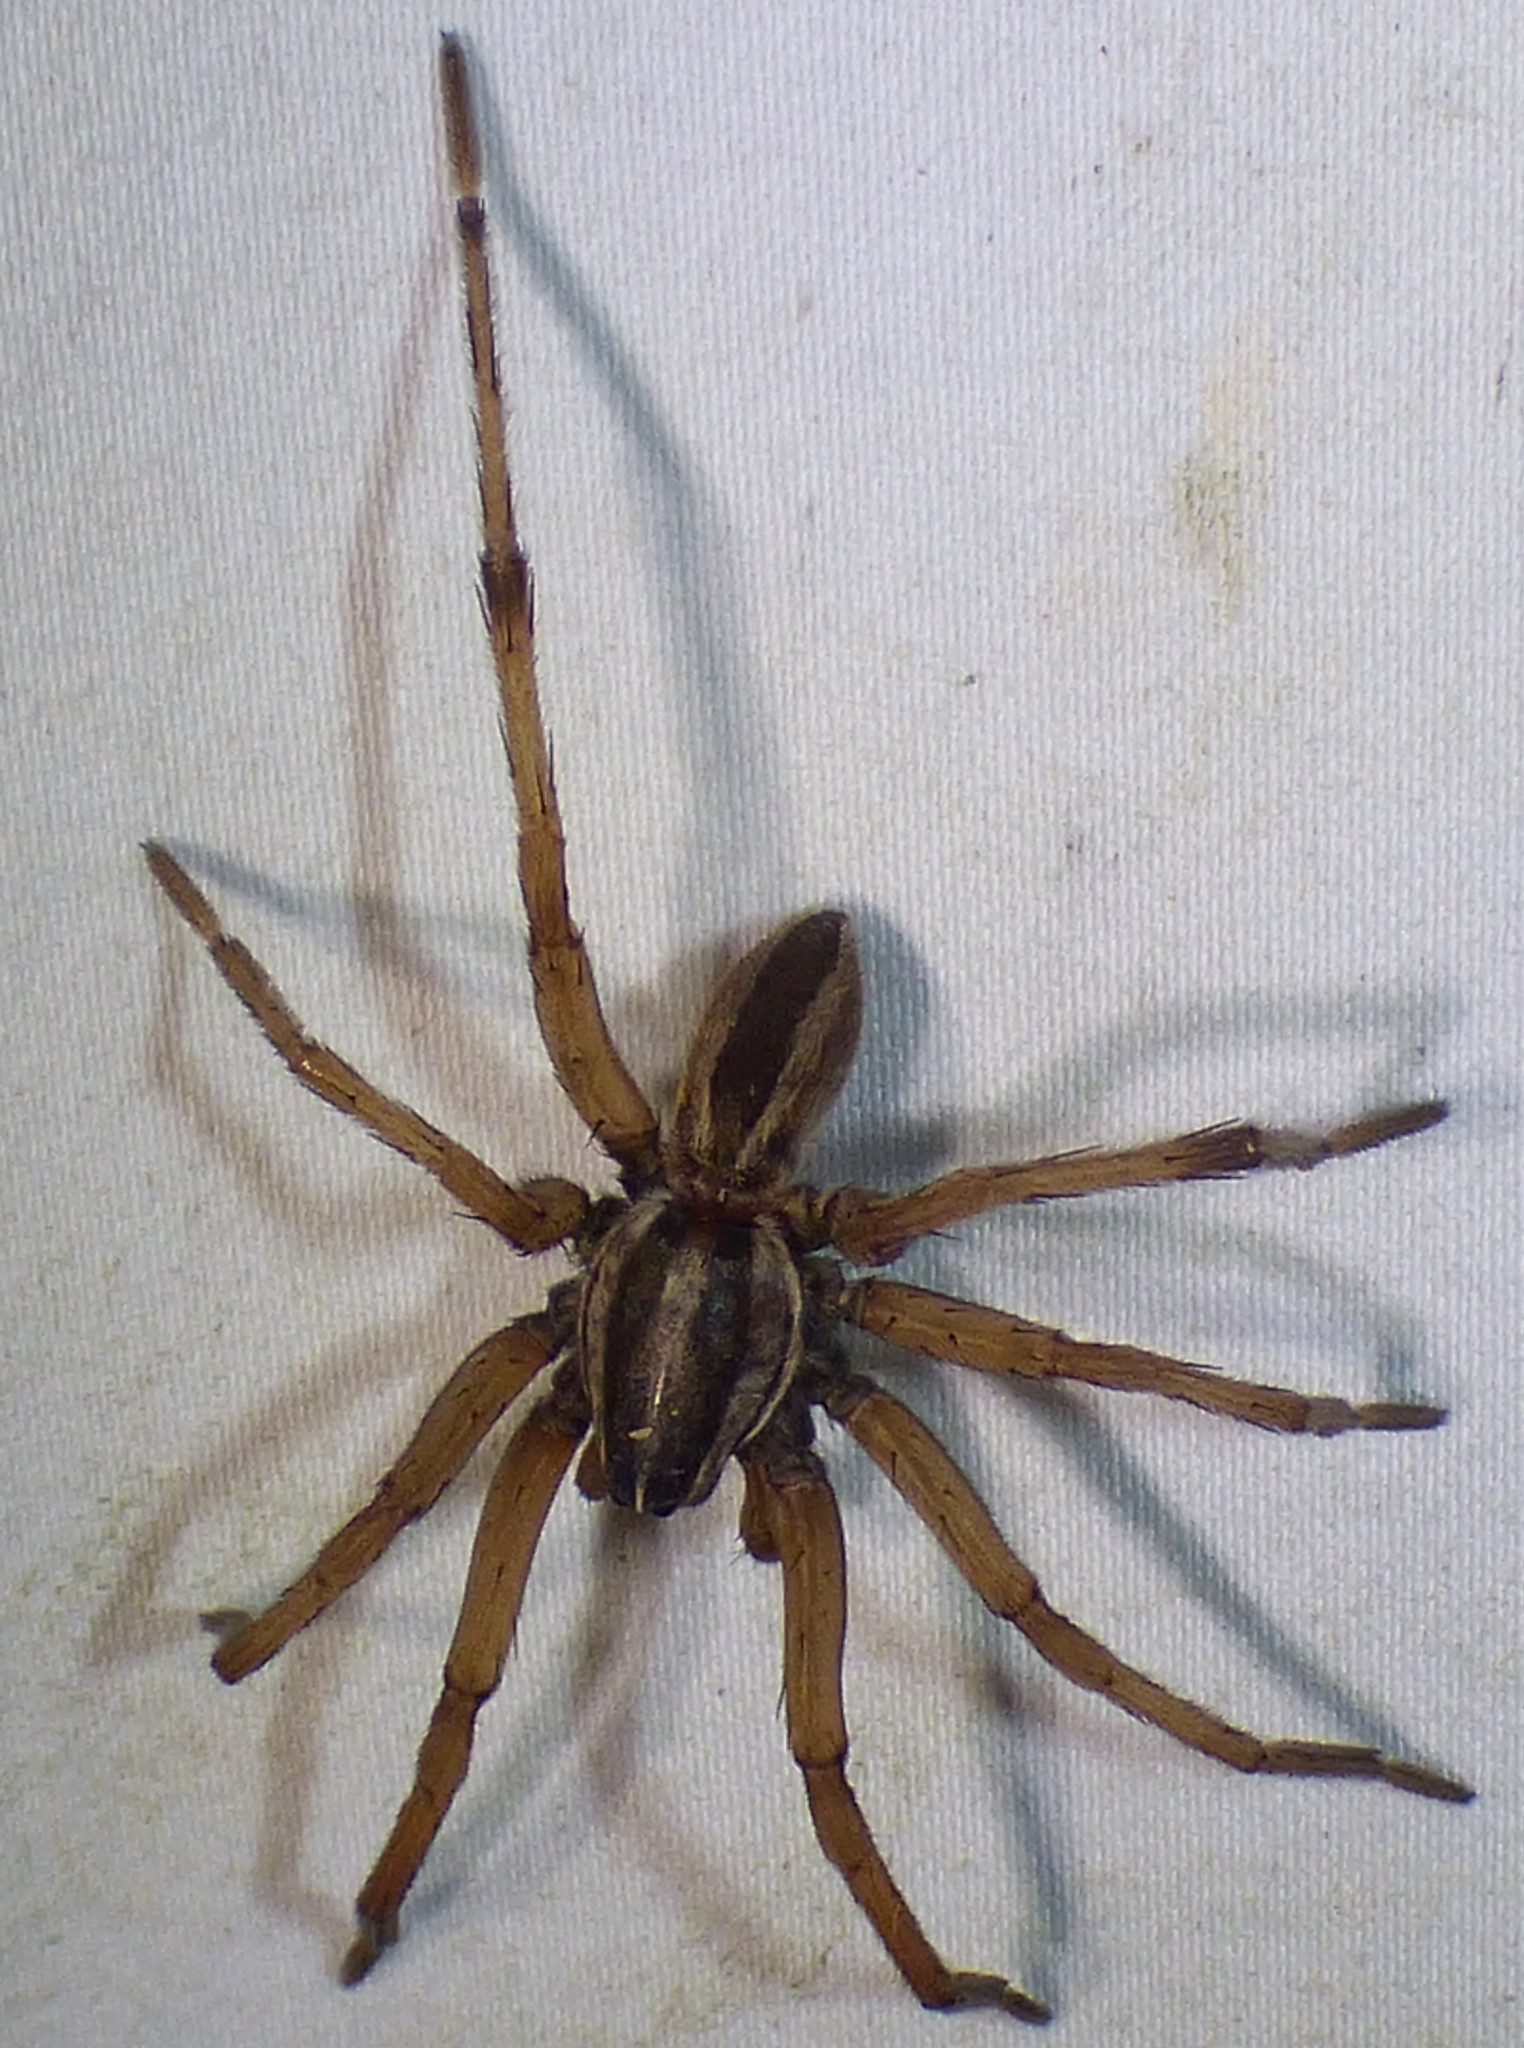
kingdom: Animalia
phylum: Arthropoda
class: Arachnida
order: Araneae
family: Lycosidae
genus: Rabidosa
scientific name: Rabidosa punctulata
